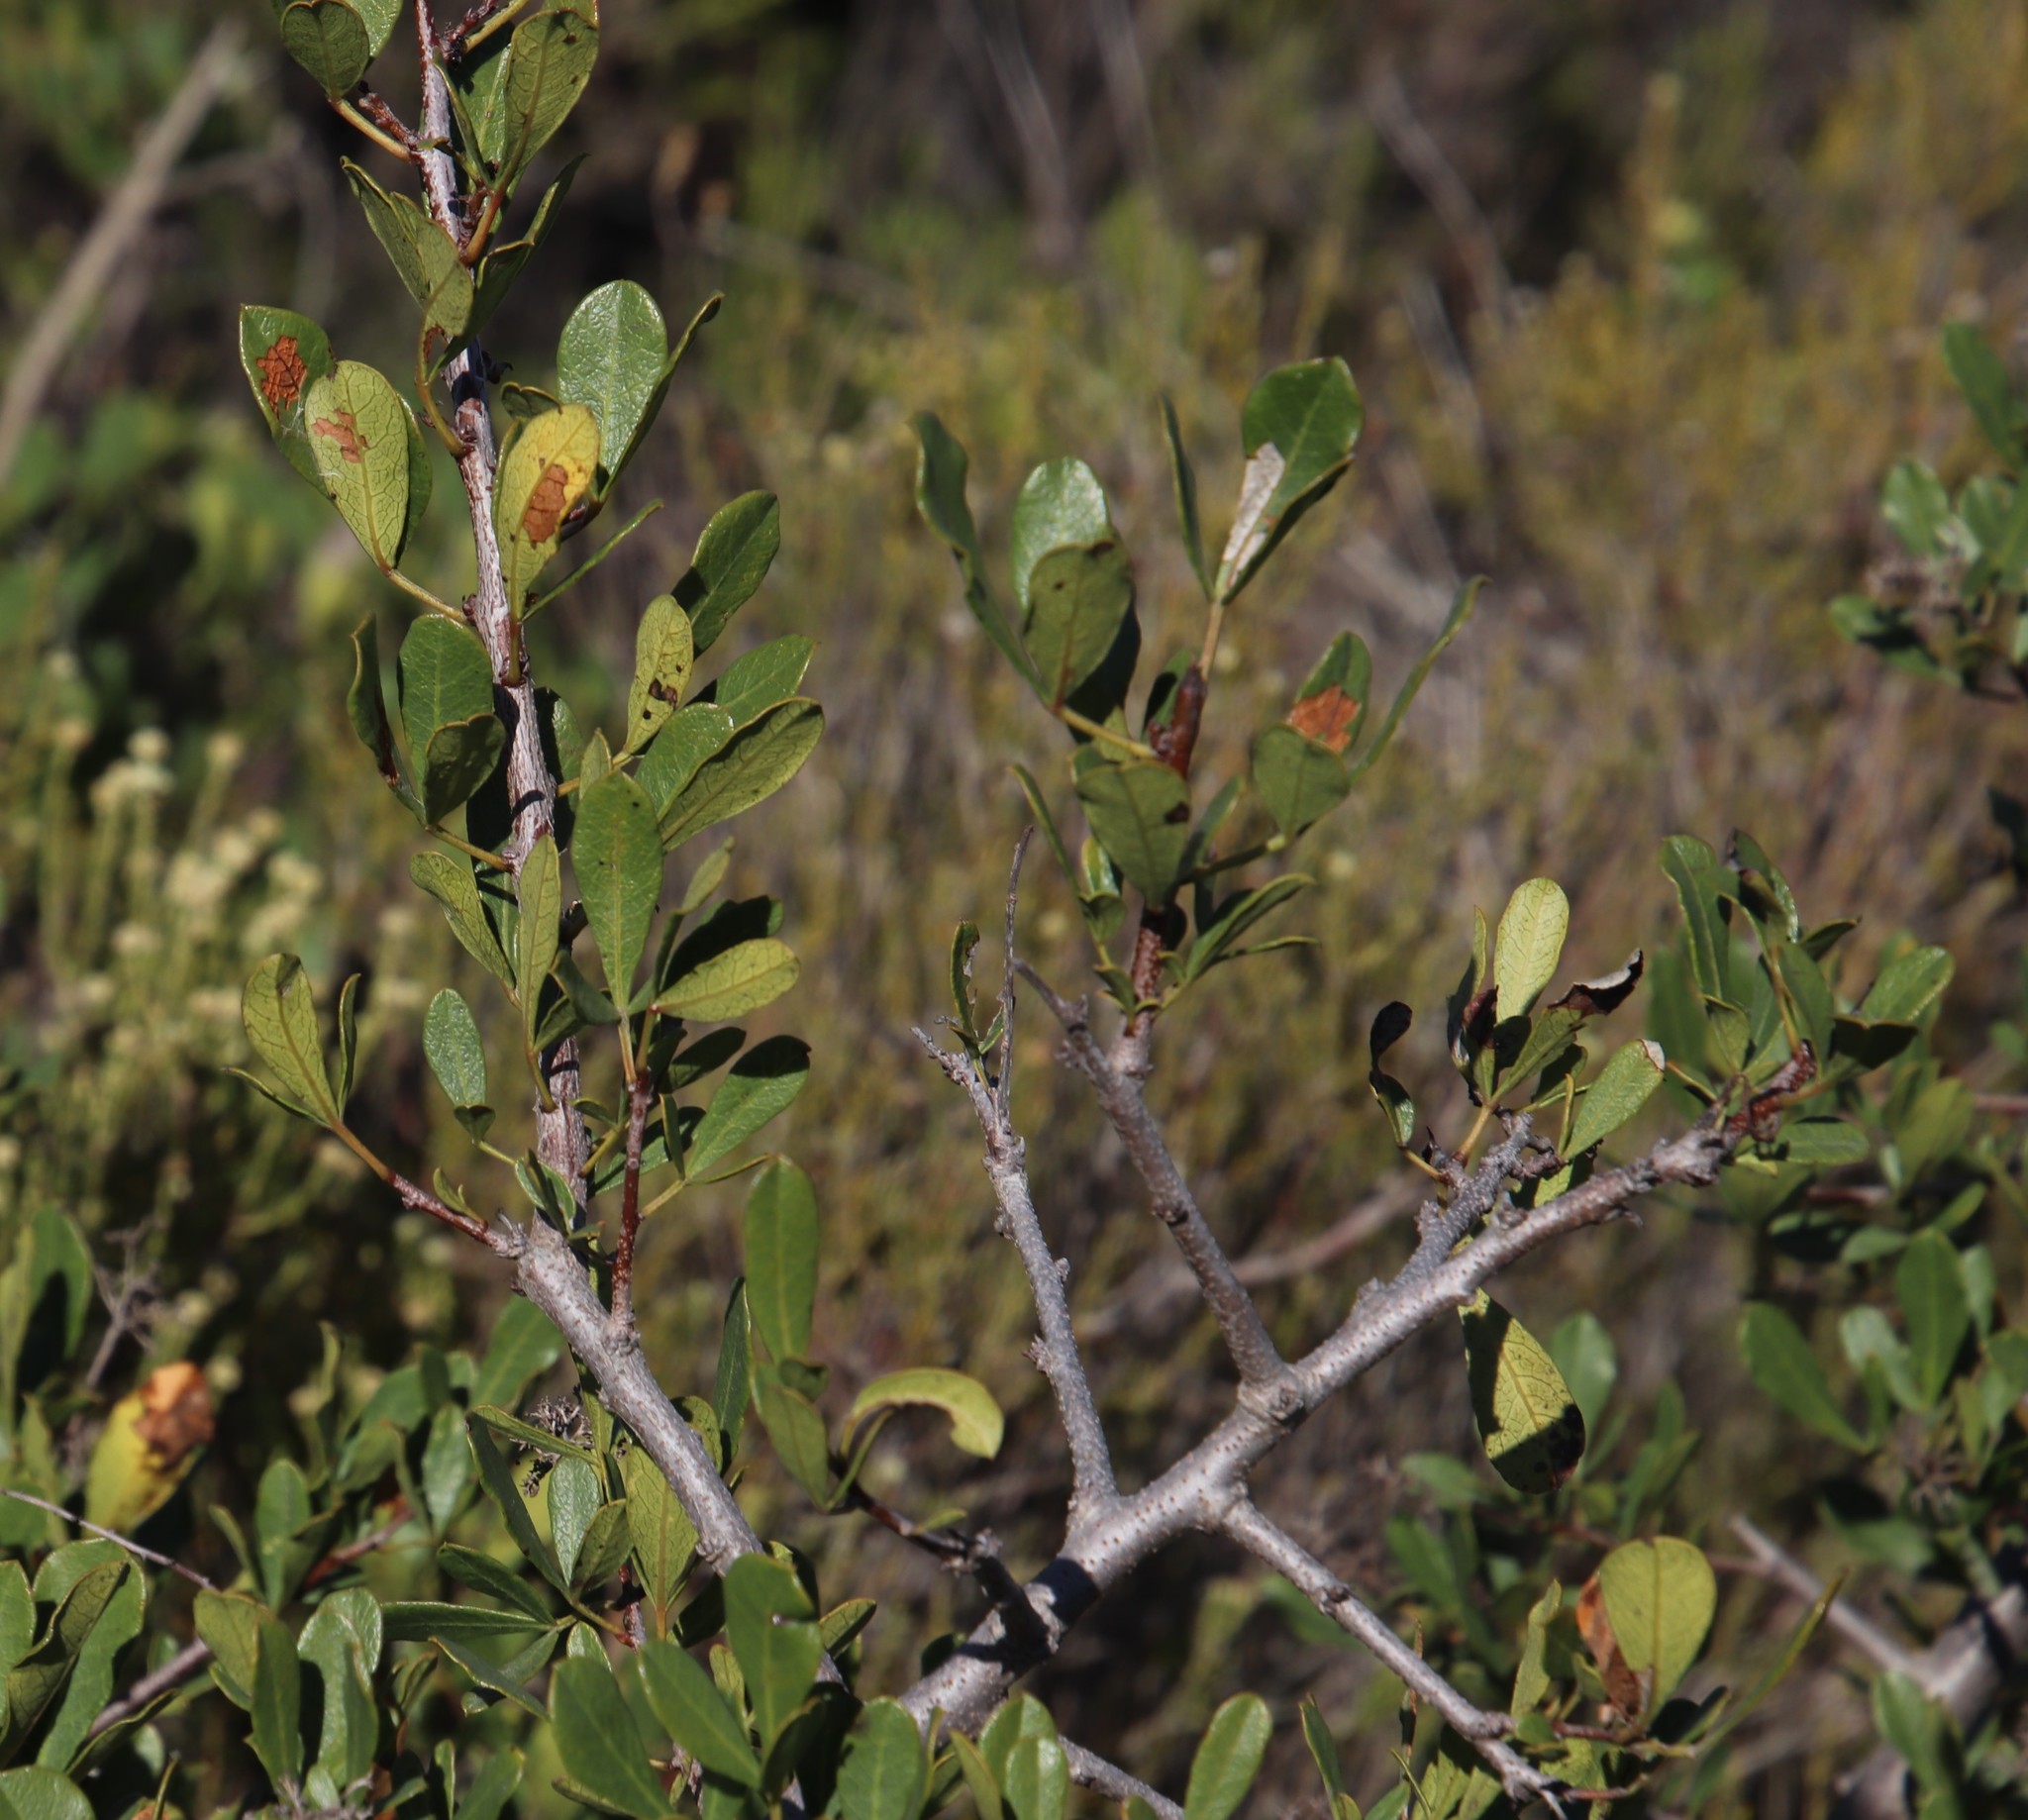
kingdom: Plantae
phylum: Tracheophyta
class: Magnoliopsida
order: Sapindales
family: Anacardiaceae
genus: Searsia
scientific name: Searsia laevigata
